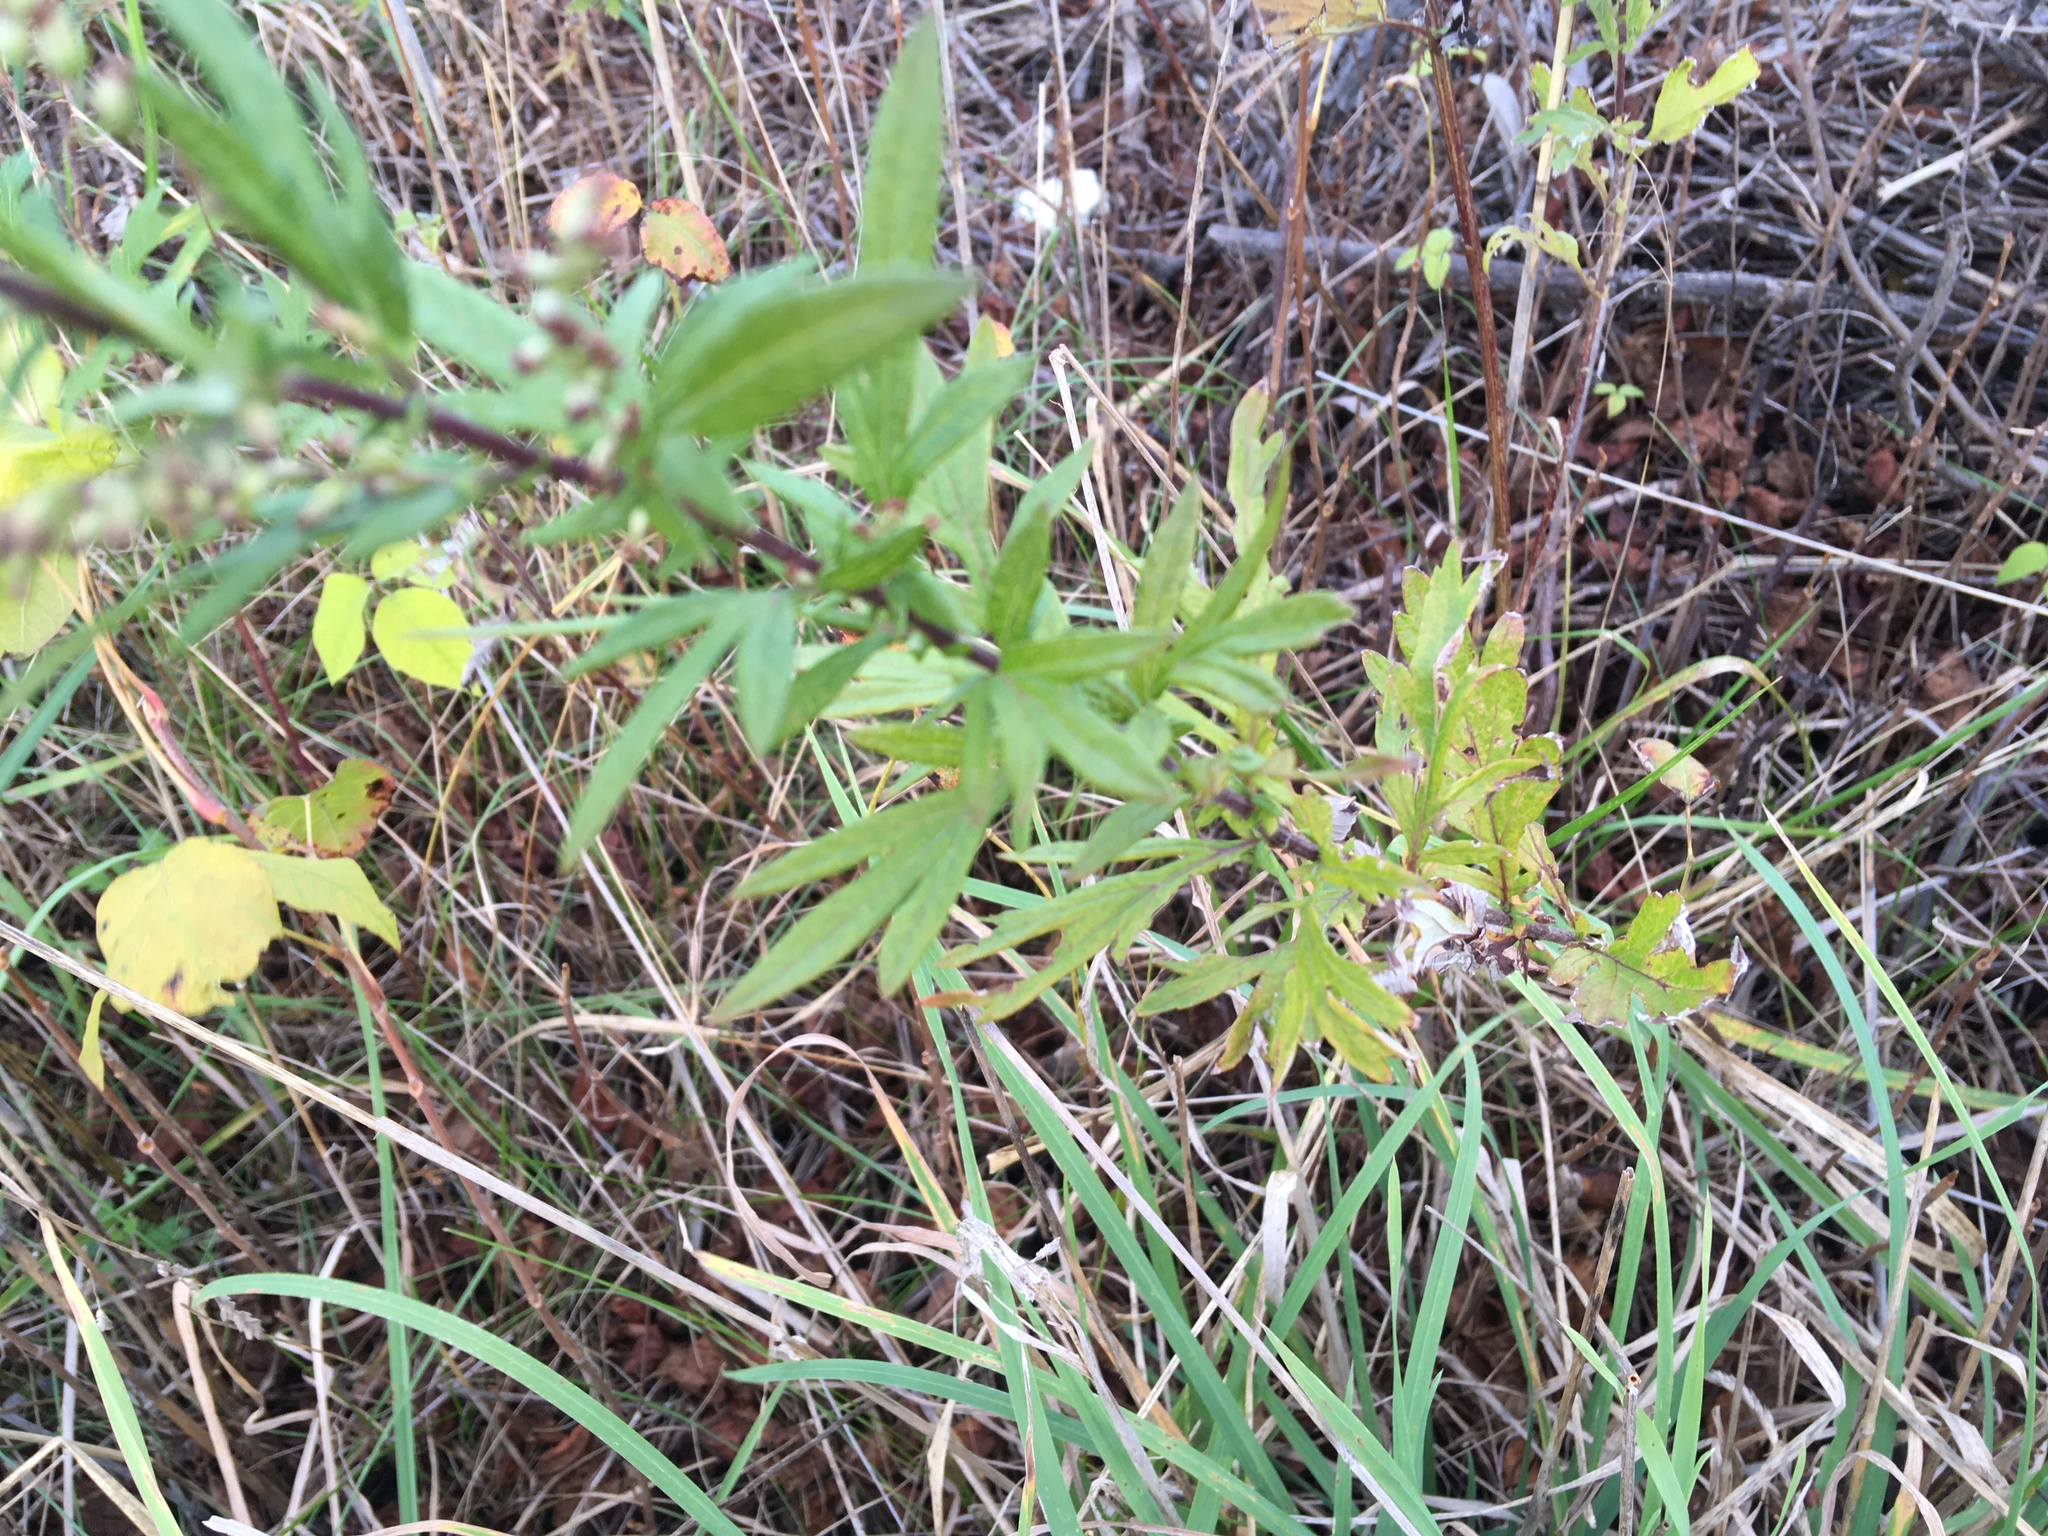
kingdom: Plantae
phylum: Tracheophyta
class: Magnoliopsida
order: Asterales
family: Asteraceae
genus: Artemisia
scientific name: Artemisia vulgaris
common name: Mugwort
